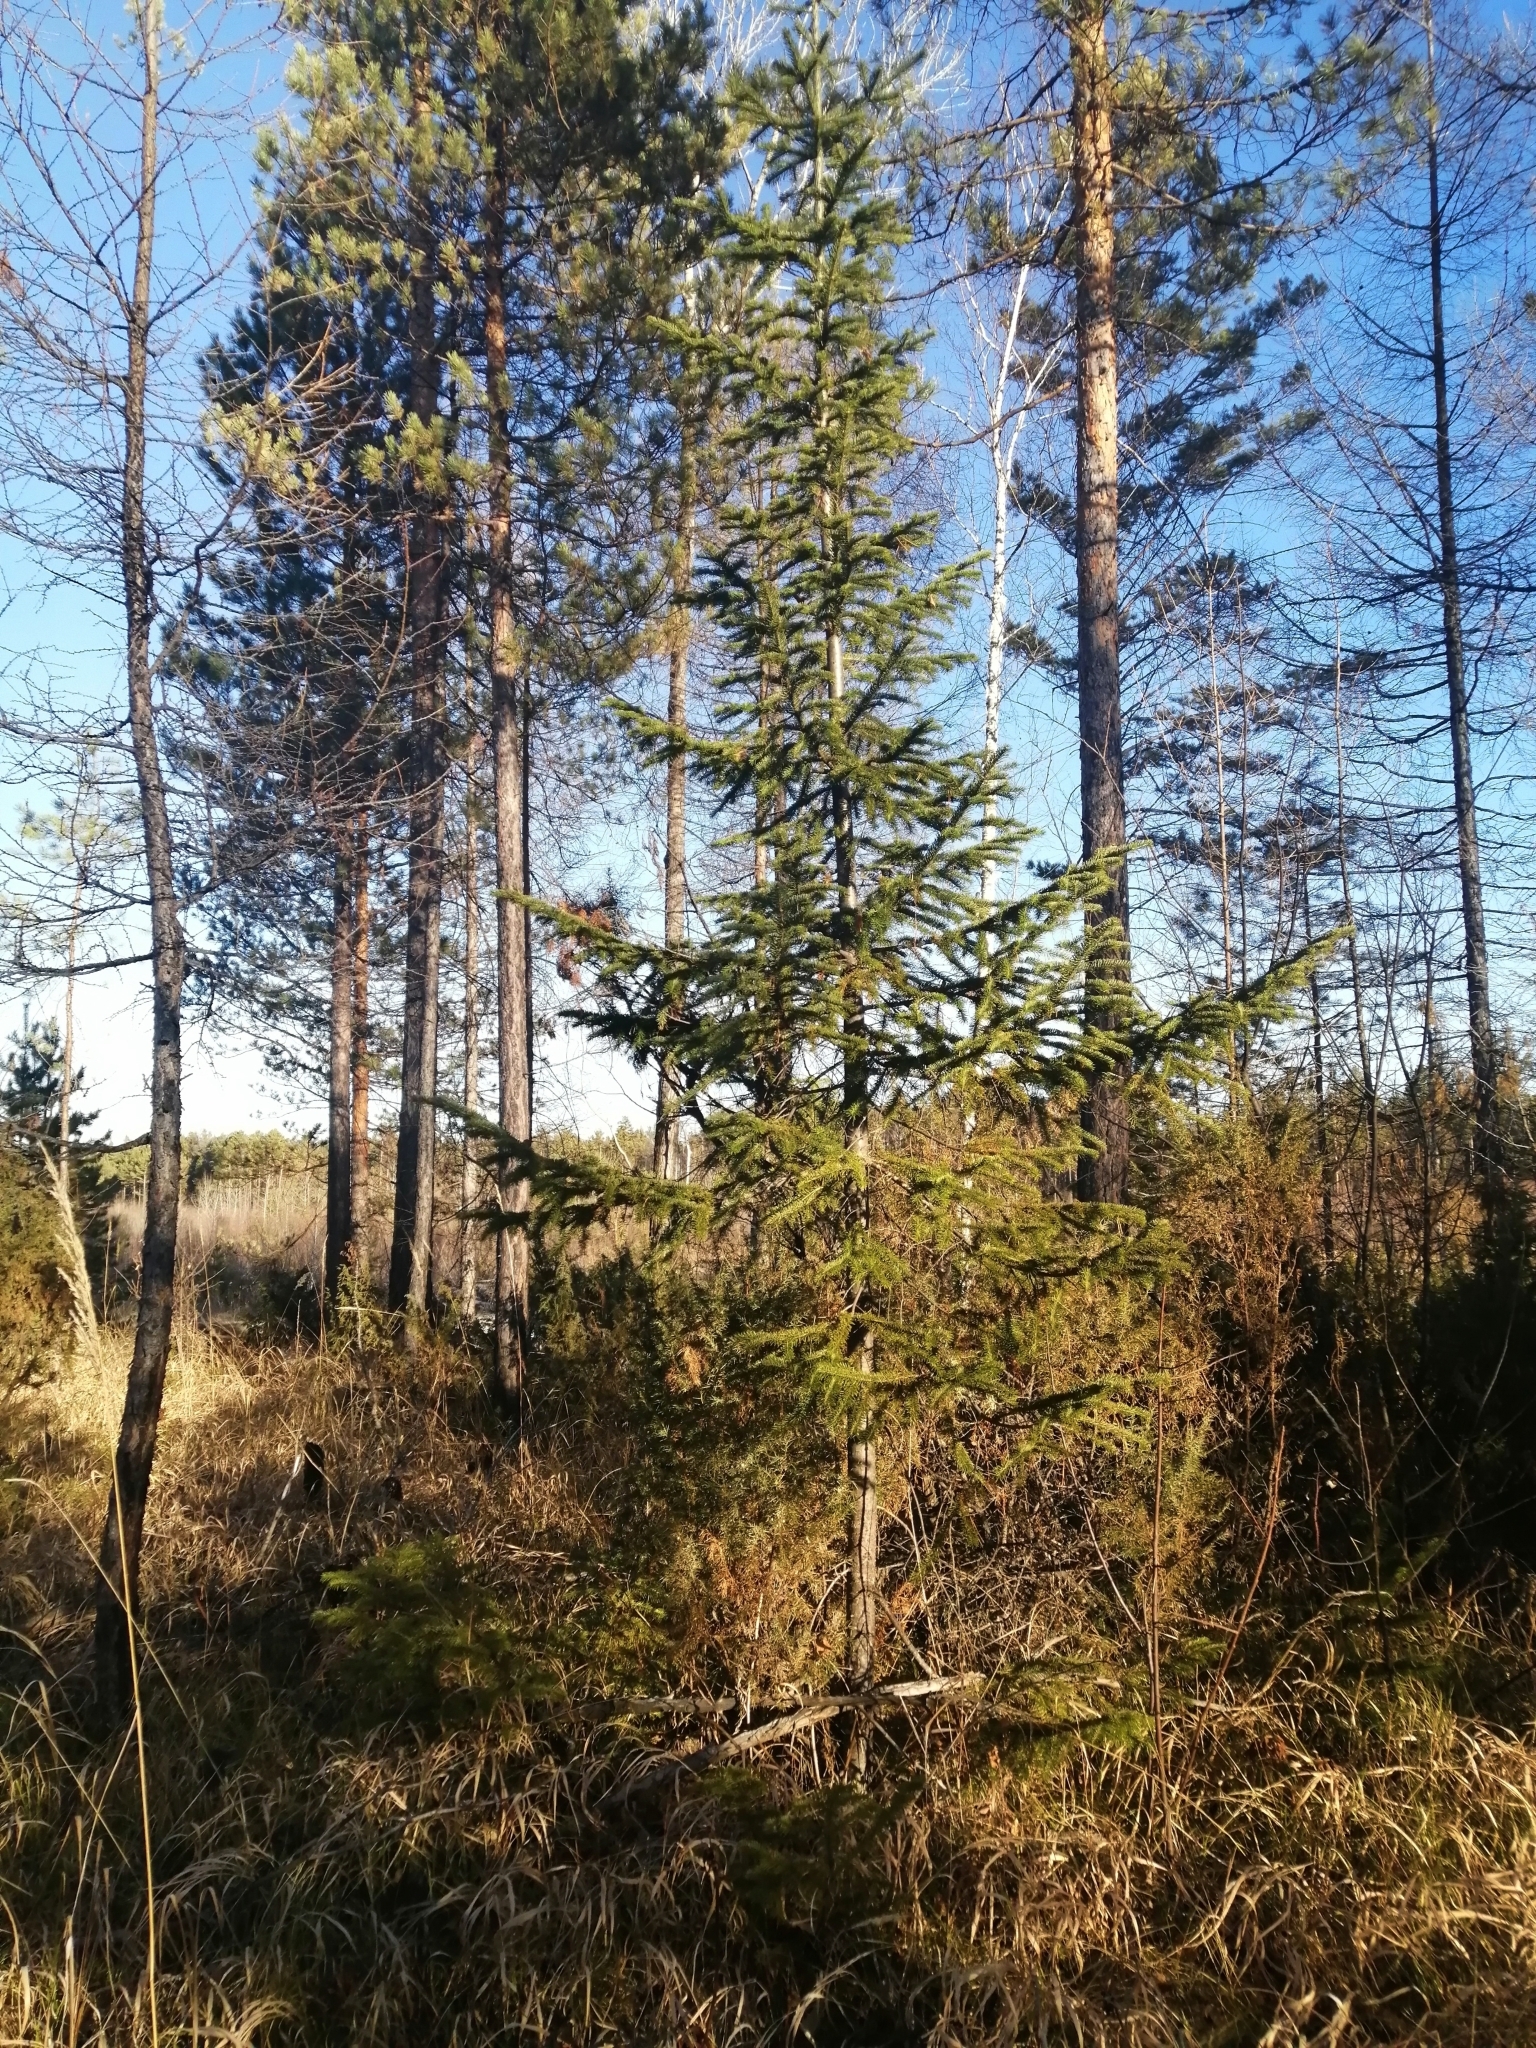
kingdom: Plantae
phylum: Tracheophyta
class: Pinopsida
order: Pinales
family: Pinaceae
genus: Abies
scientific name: Abies sibirica
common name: Siberian fir
